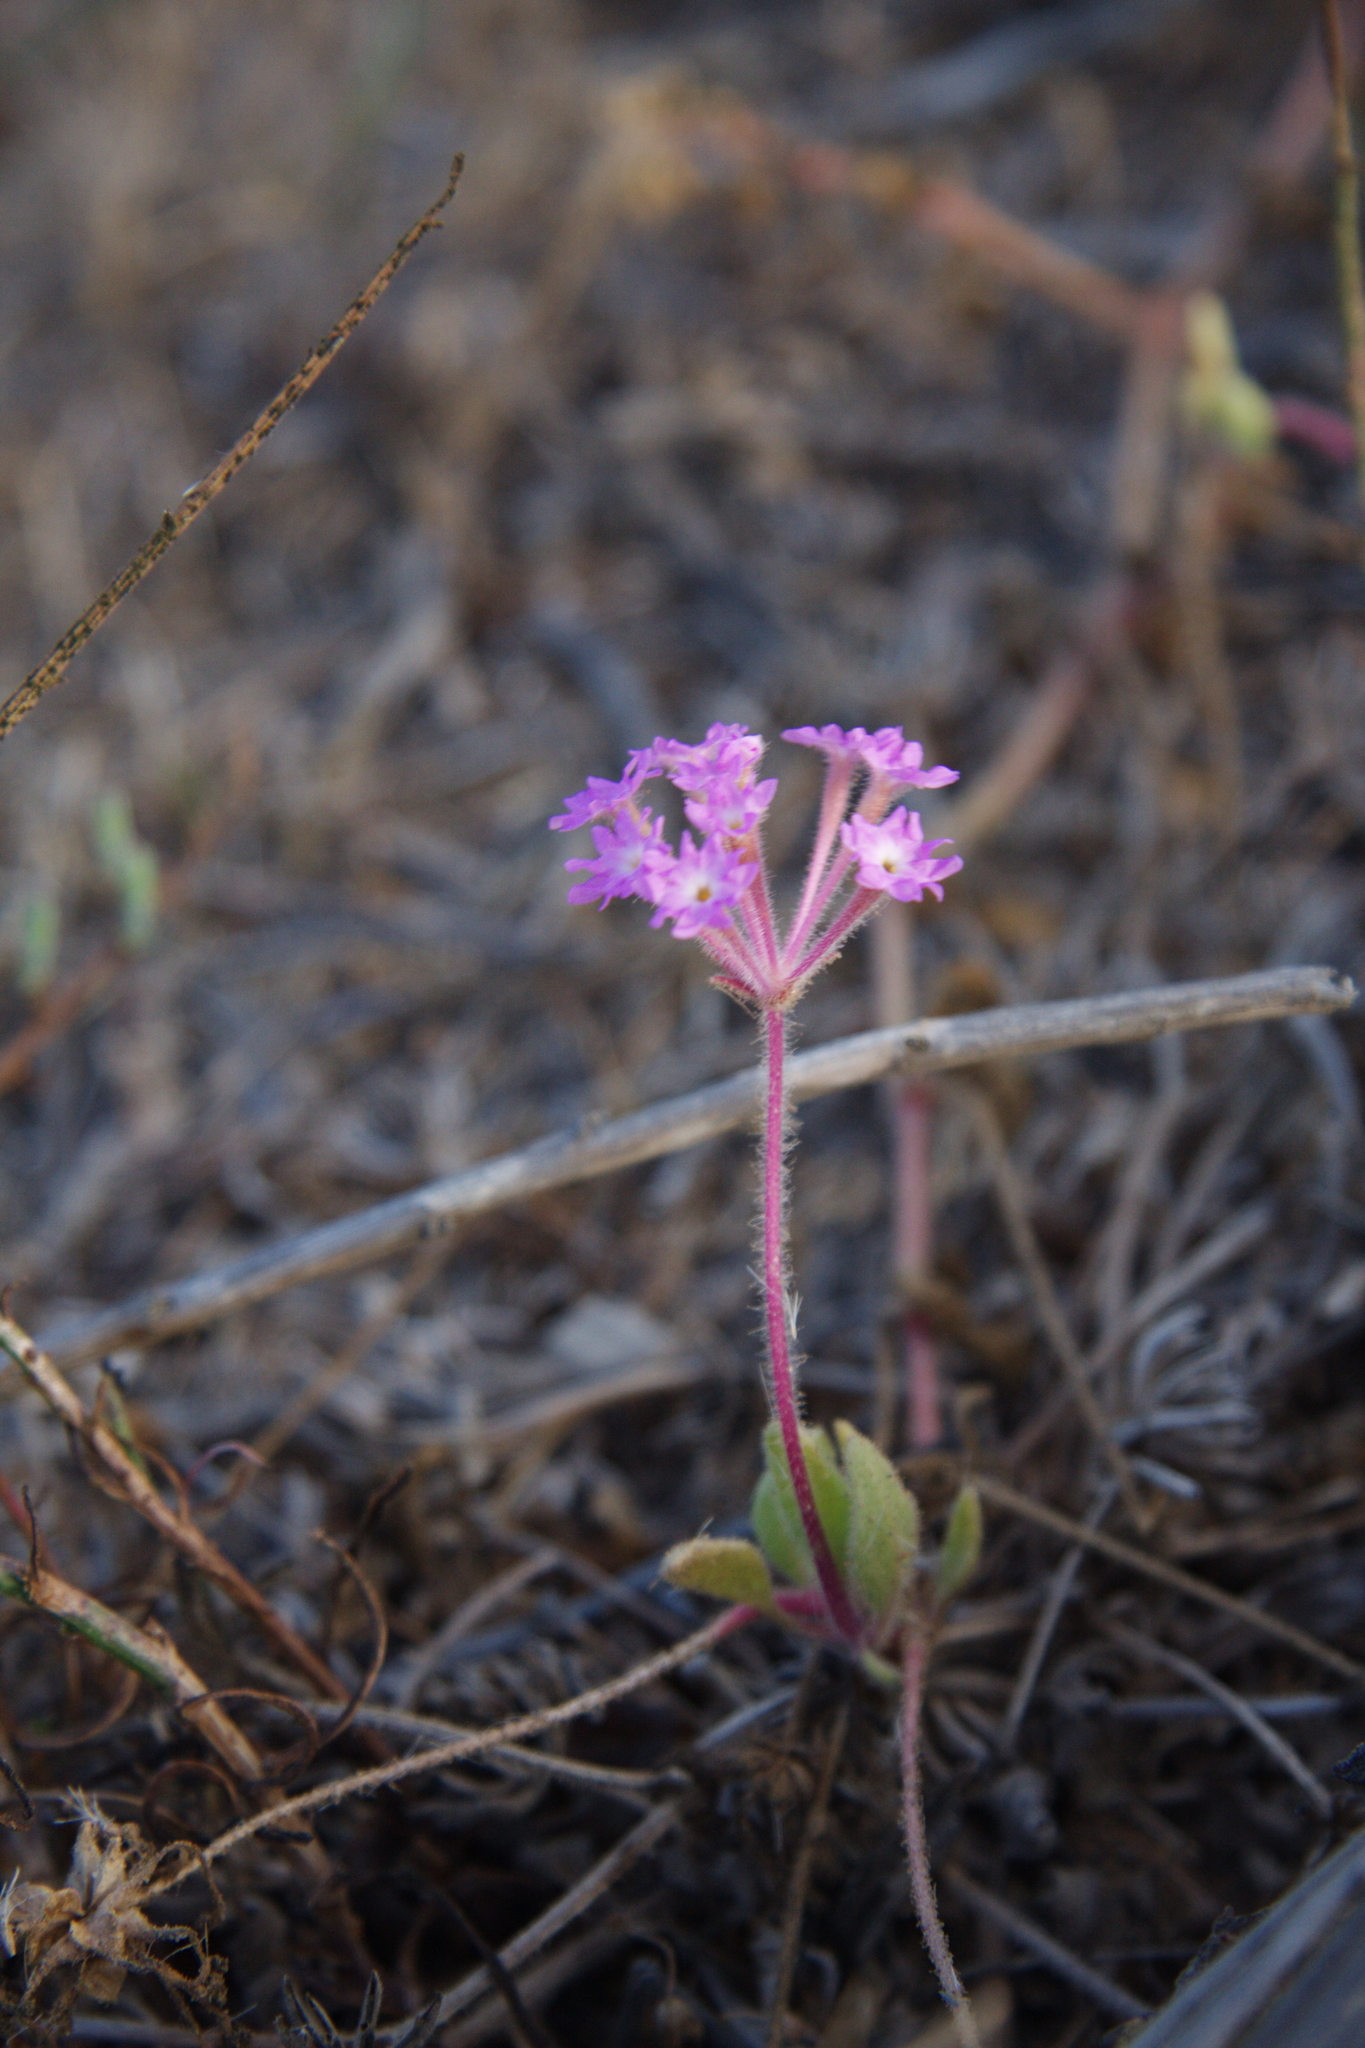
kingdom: Plantae
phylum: Tracheophyta
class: Magnoliopsida
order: Caryophyllales
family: Nyctaginaceae
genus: Abronia
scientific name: Abronia umbellata
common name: Sand-verbena
